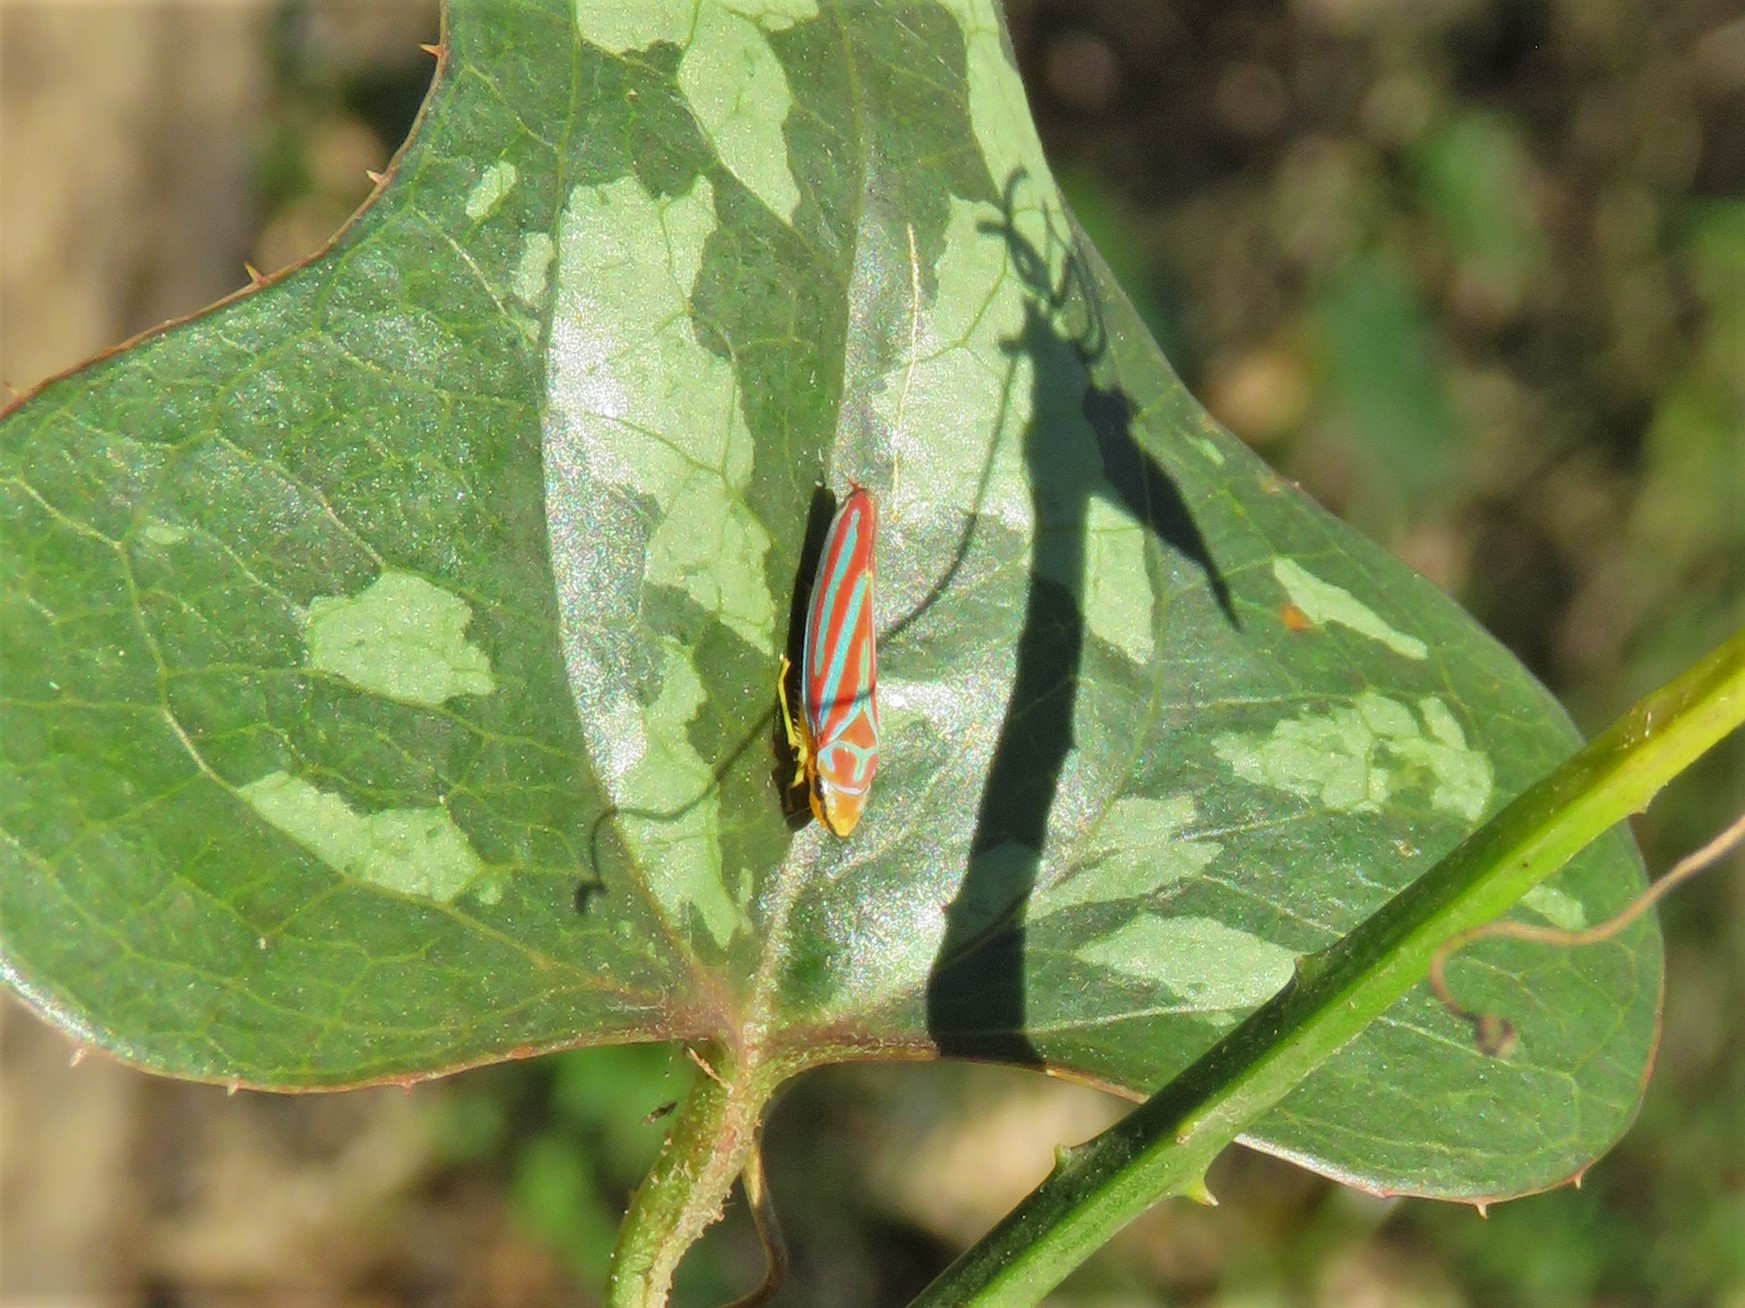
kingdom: Animalia
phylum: Arthropoda
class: Insecta
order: Hemiptera
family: Cicadellidae
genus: Graphocephala
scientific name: Graphocephala coccinea
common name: Candy-striped leafhopper
